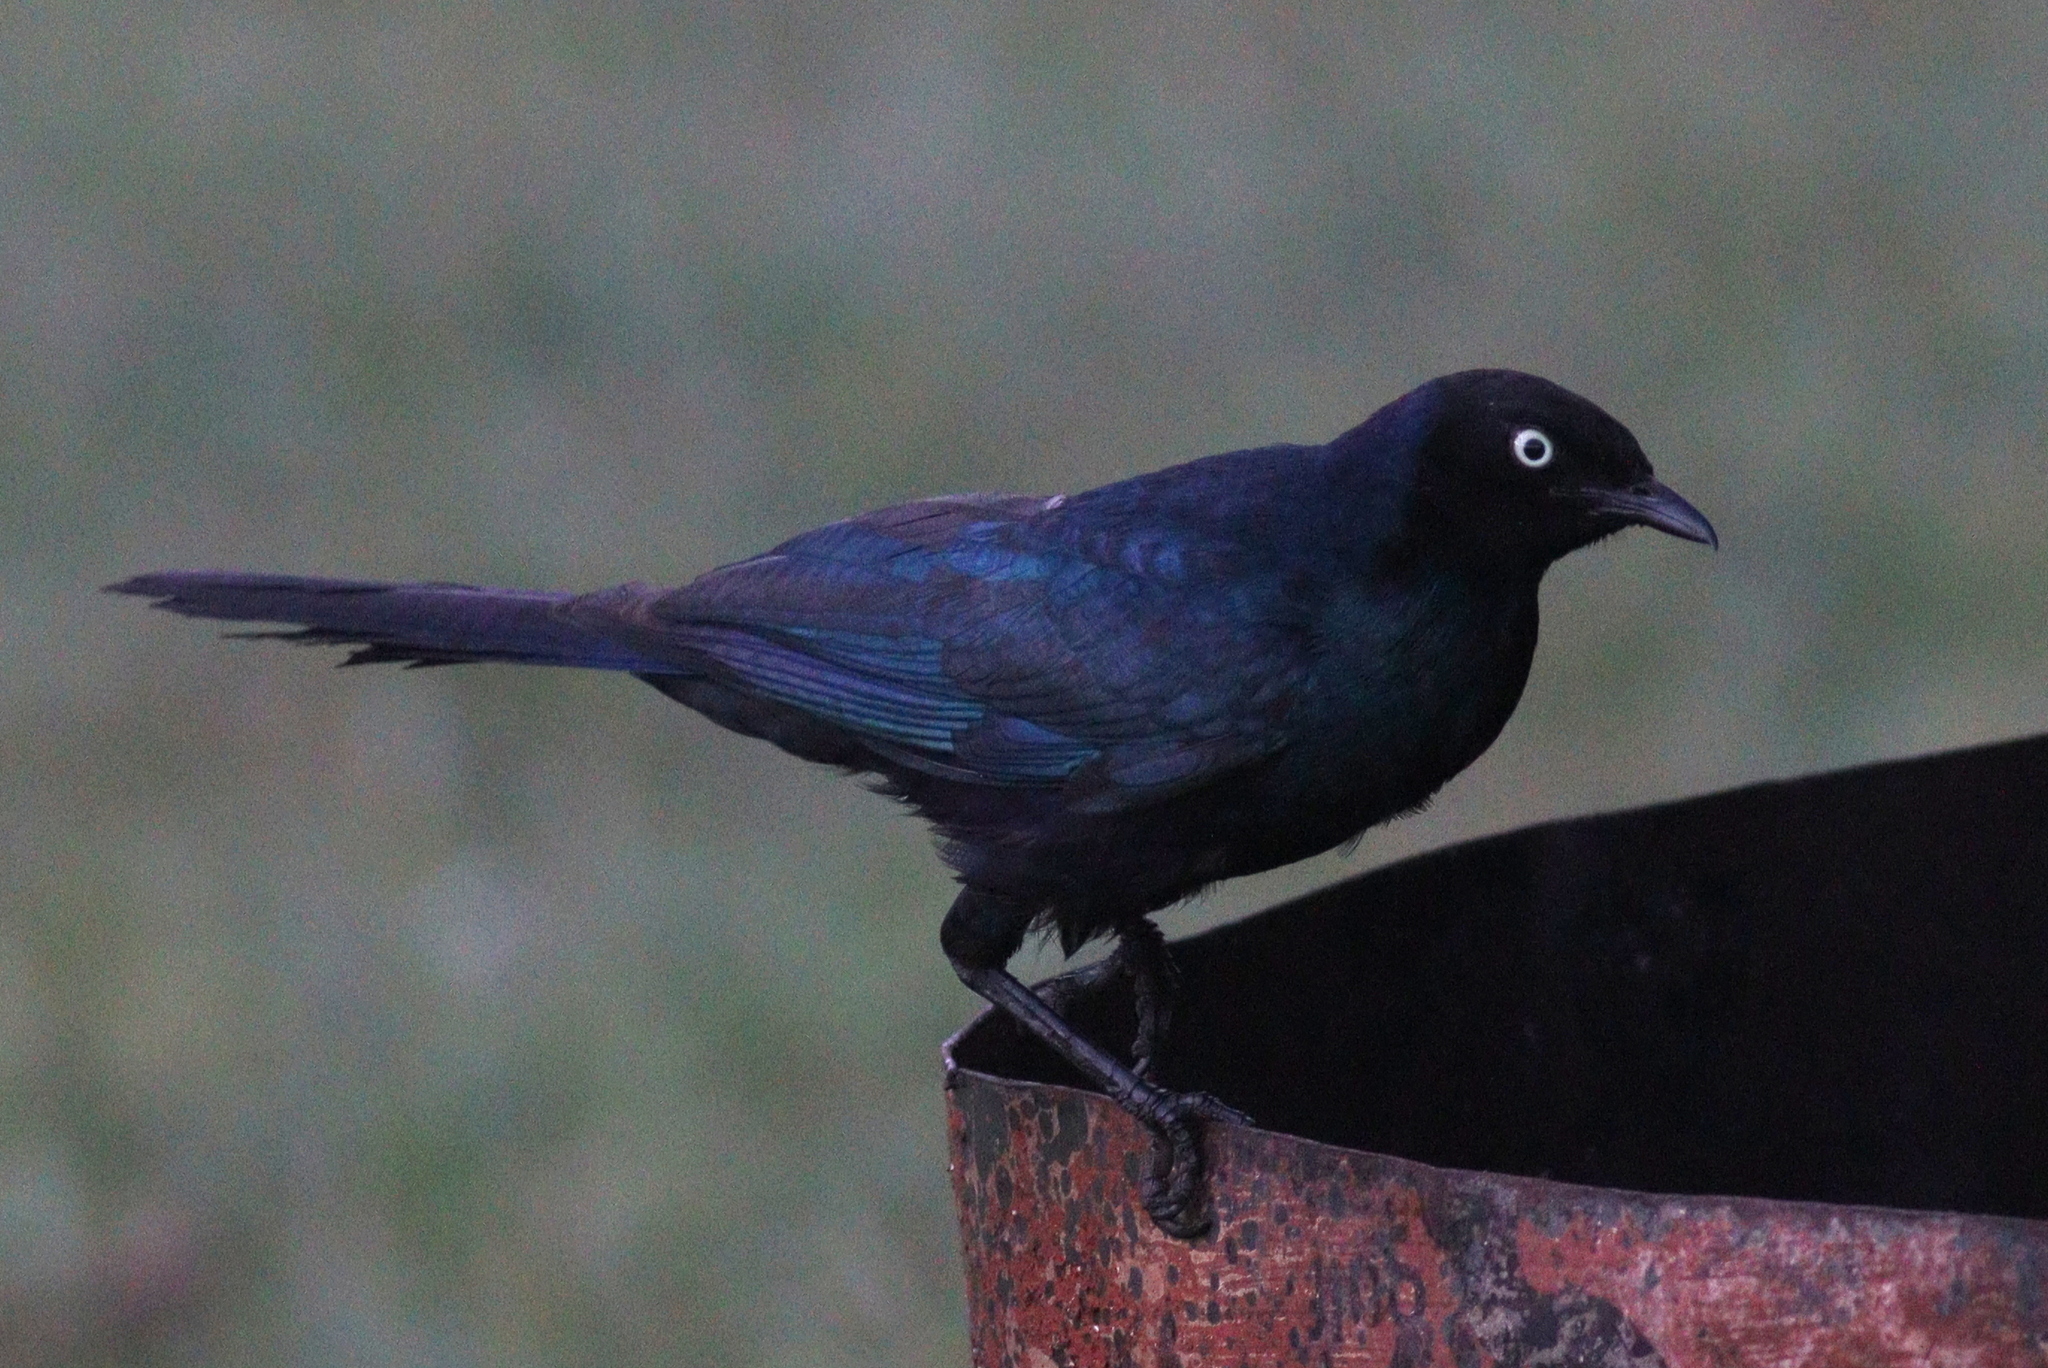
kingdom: Animalia
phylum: Chordata
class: Aves
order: Passeriformes
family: Sturnidae
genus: Lamprotornis
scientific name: Lamprotornis purpuroptera
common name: Rüppell's starling
